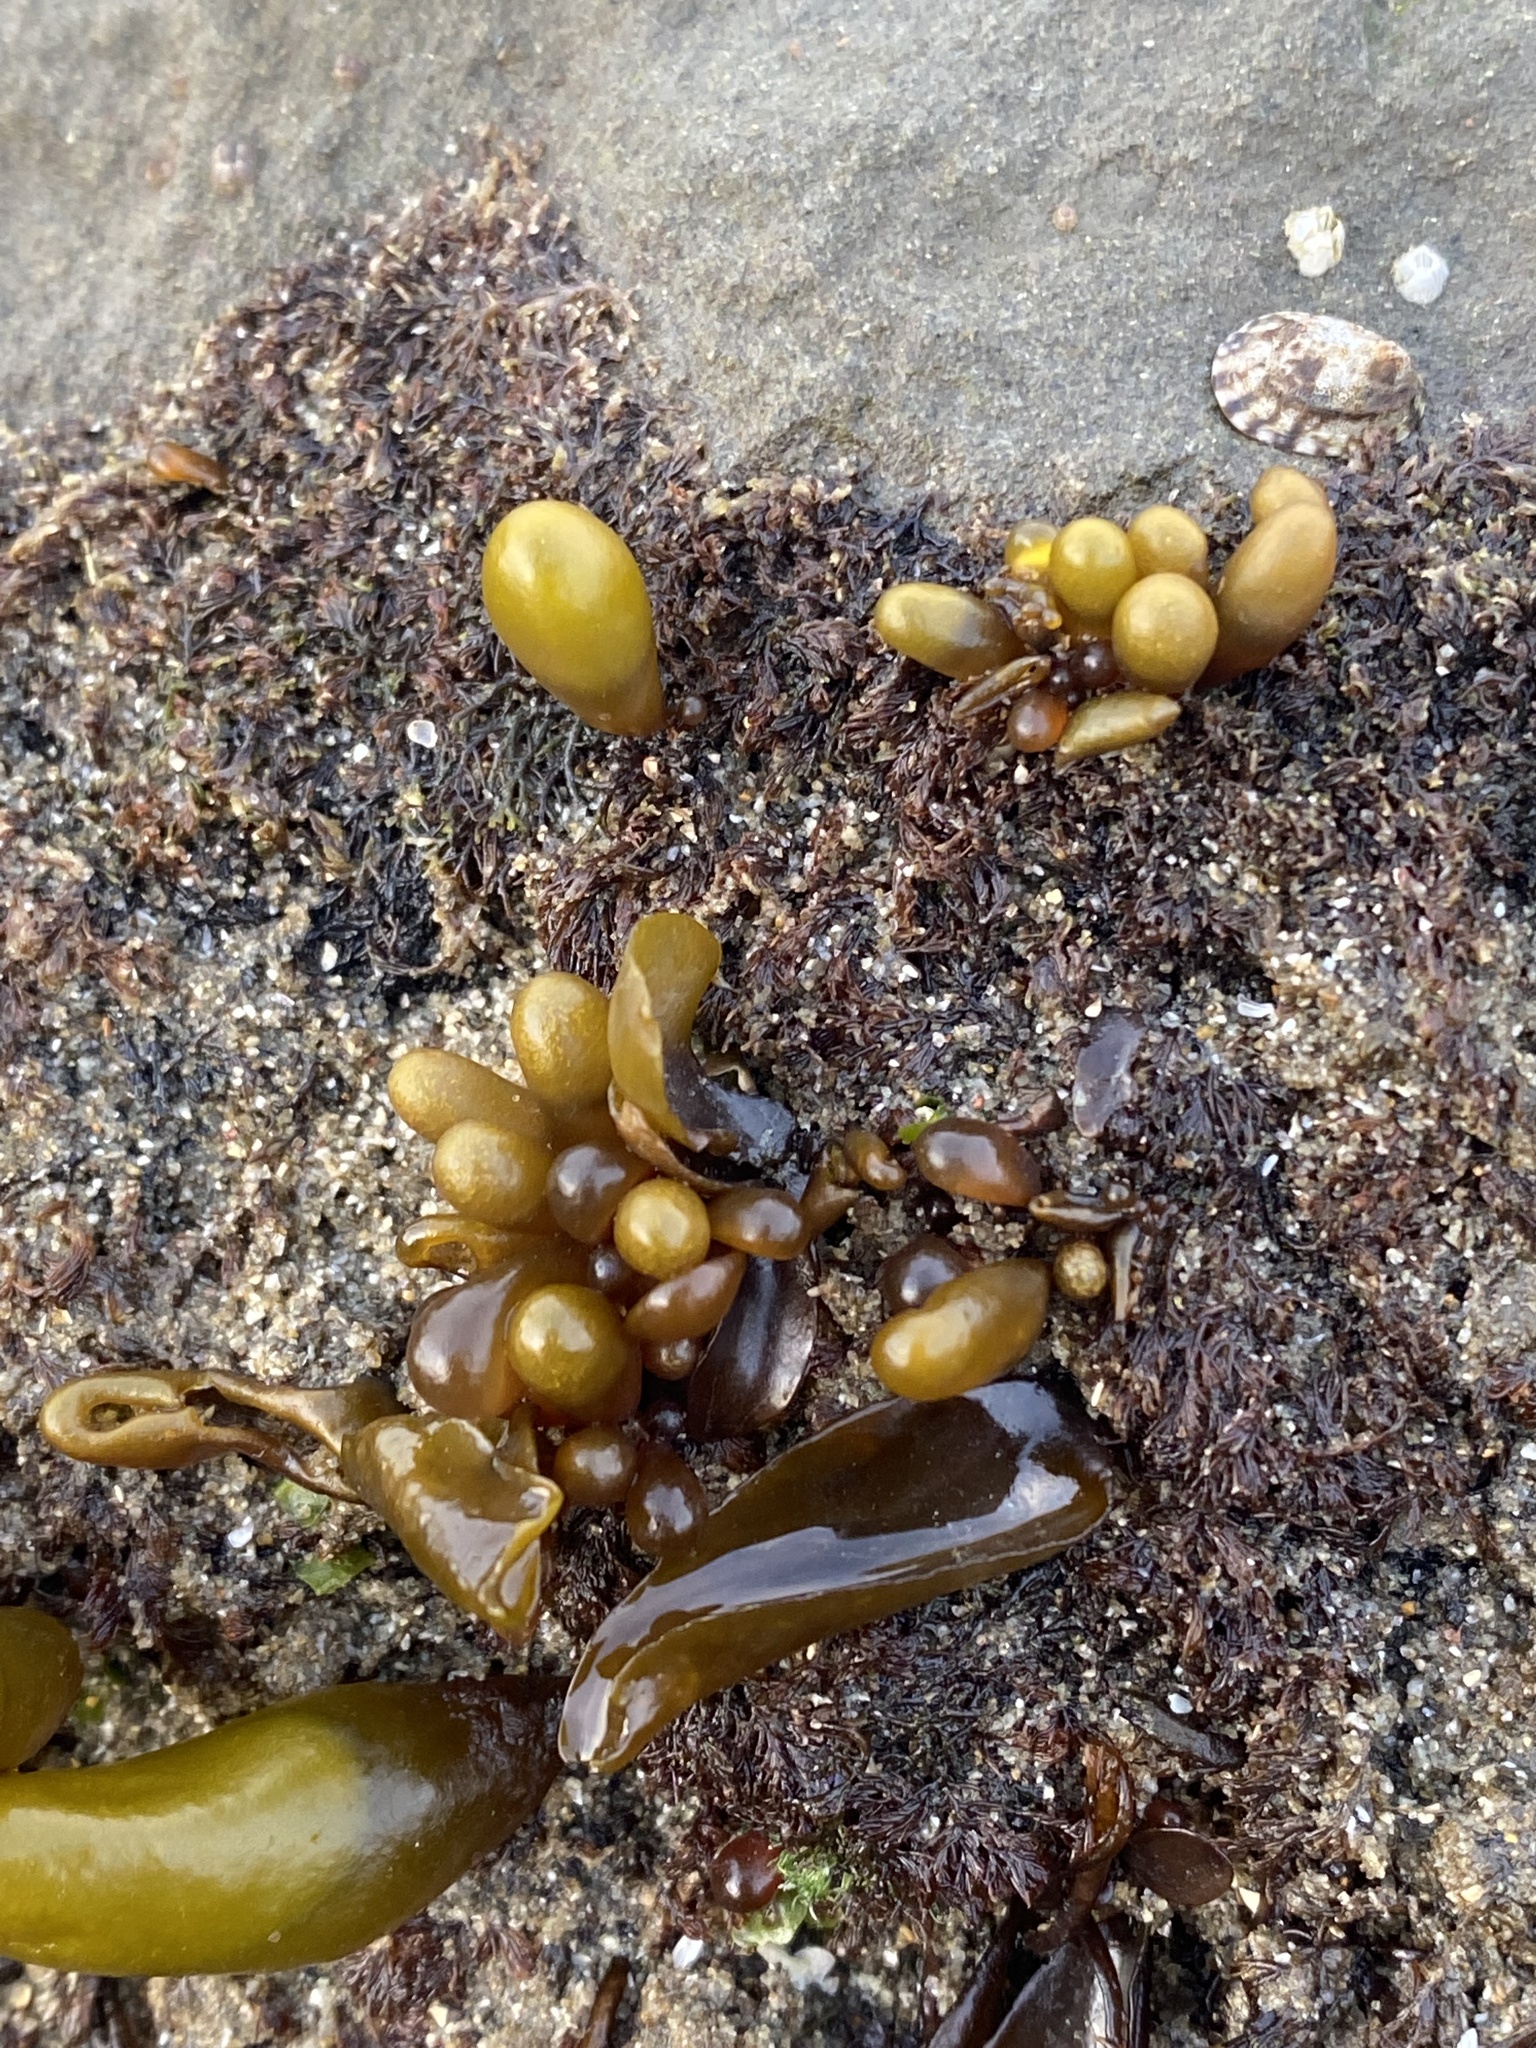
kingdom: Plantae
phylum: Rhodophyta
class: Florideophyceae
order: Palmariales
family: Palmariaceae
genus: Halosaccion
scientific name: Halosaccion glandiforme
